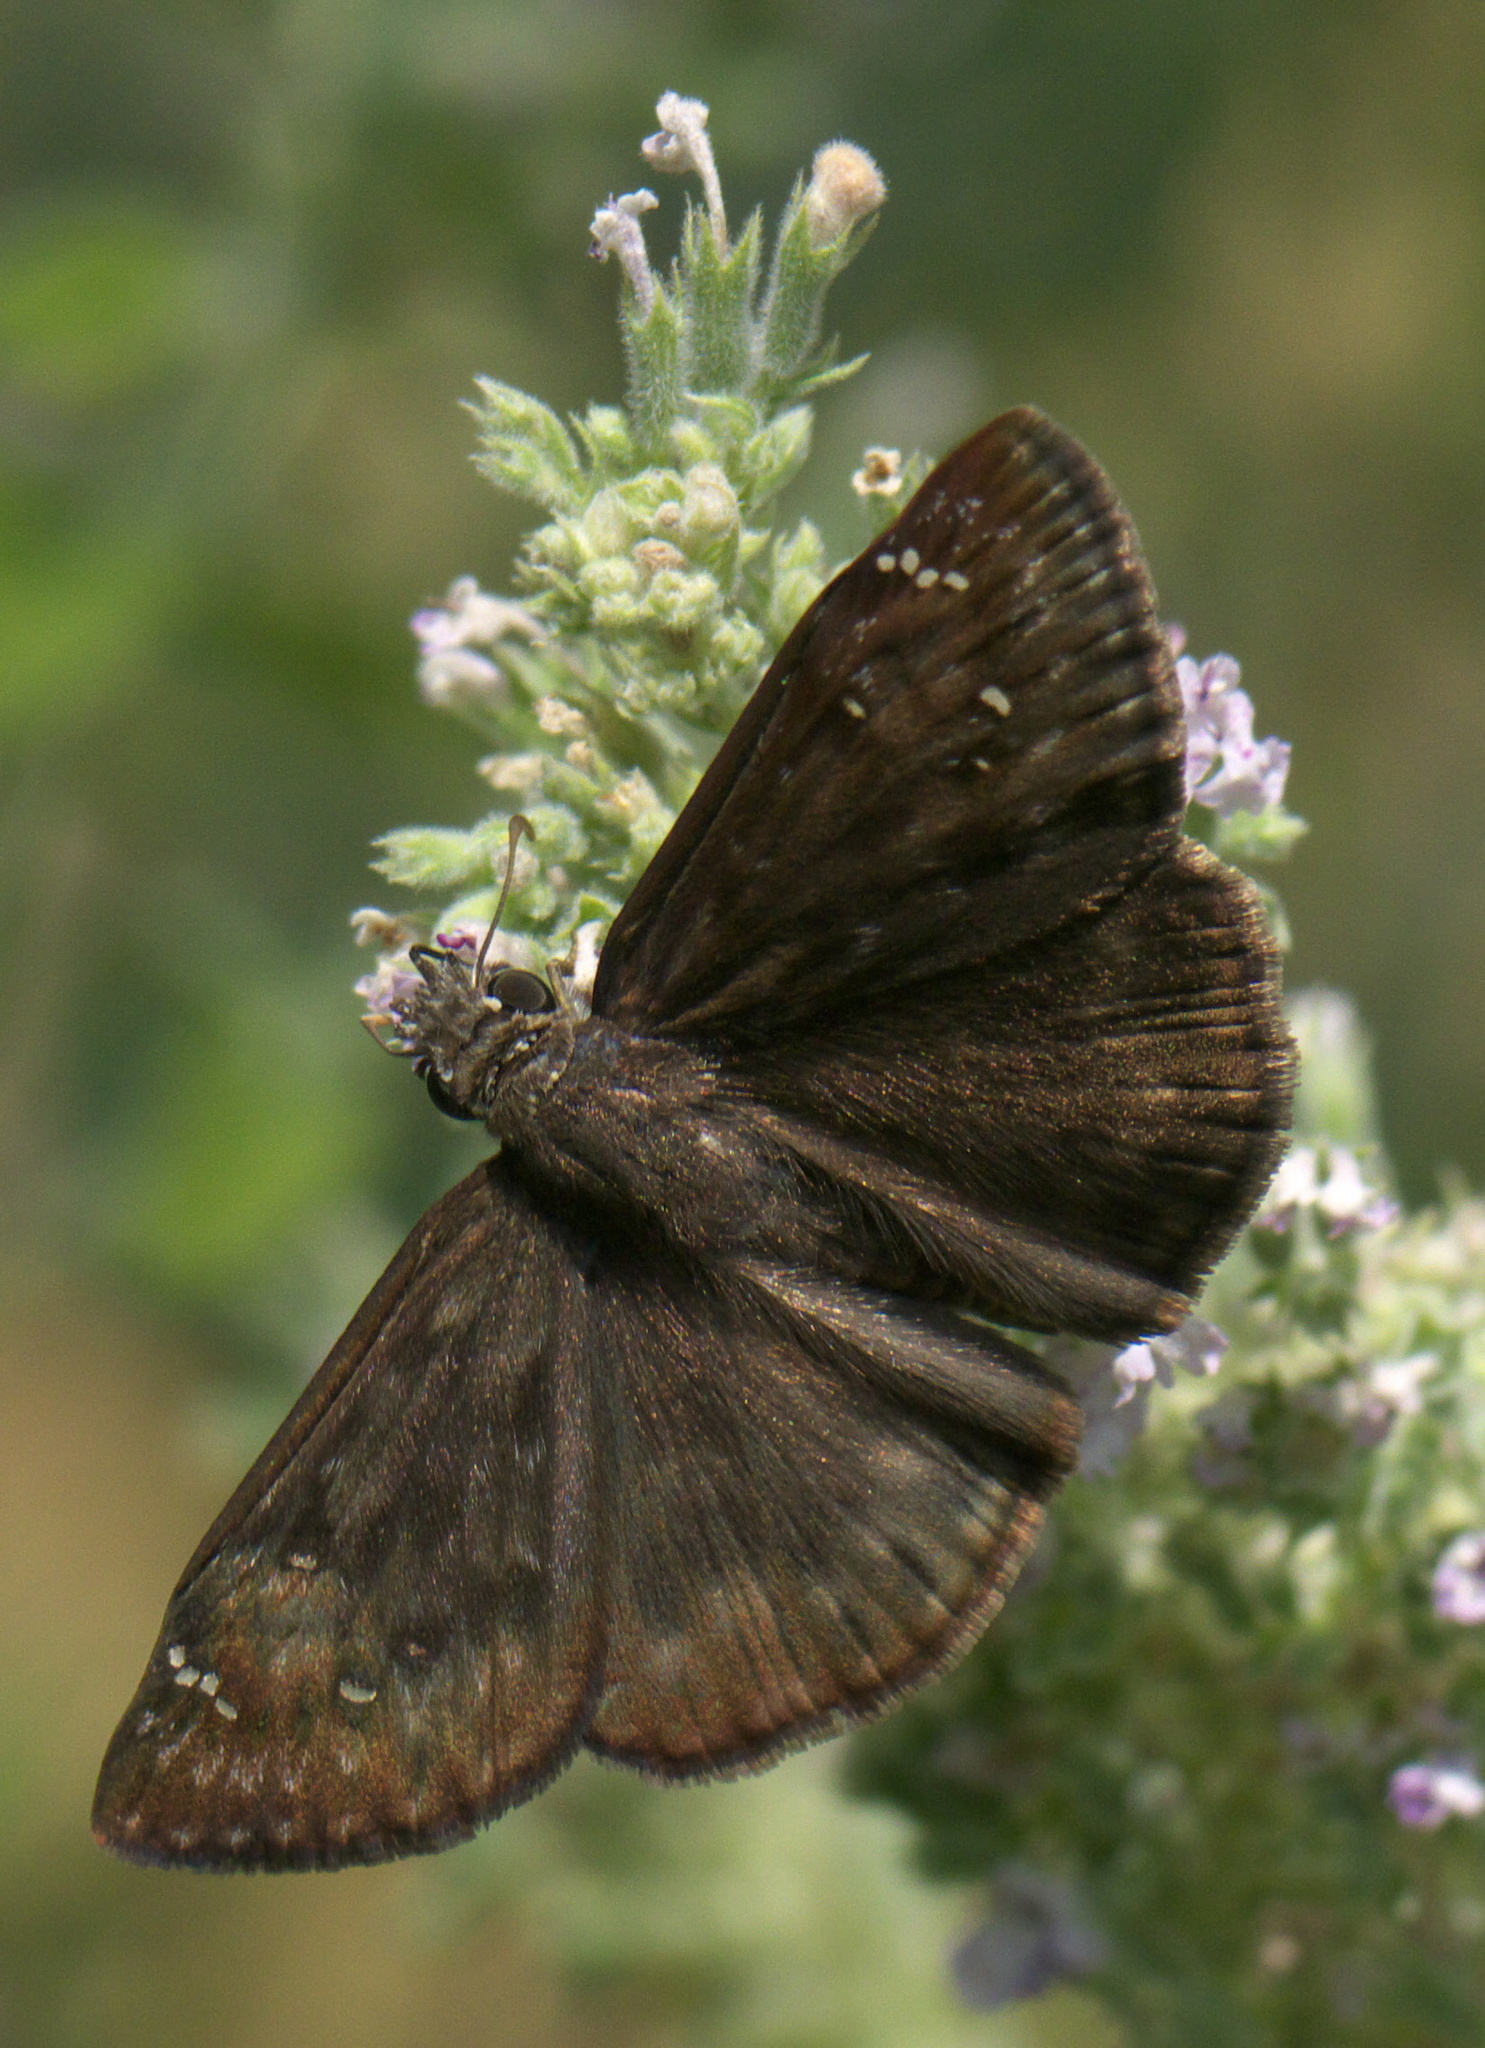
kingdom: Animalia
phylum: Arthropoda
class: Insecta
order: Lepidoptera
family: Hesperiidae
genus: Erynnis
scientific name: Erynnis horatius
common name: Horace's duskywing
